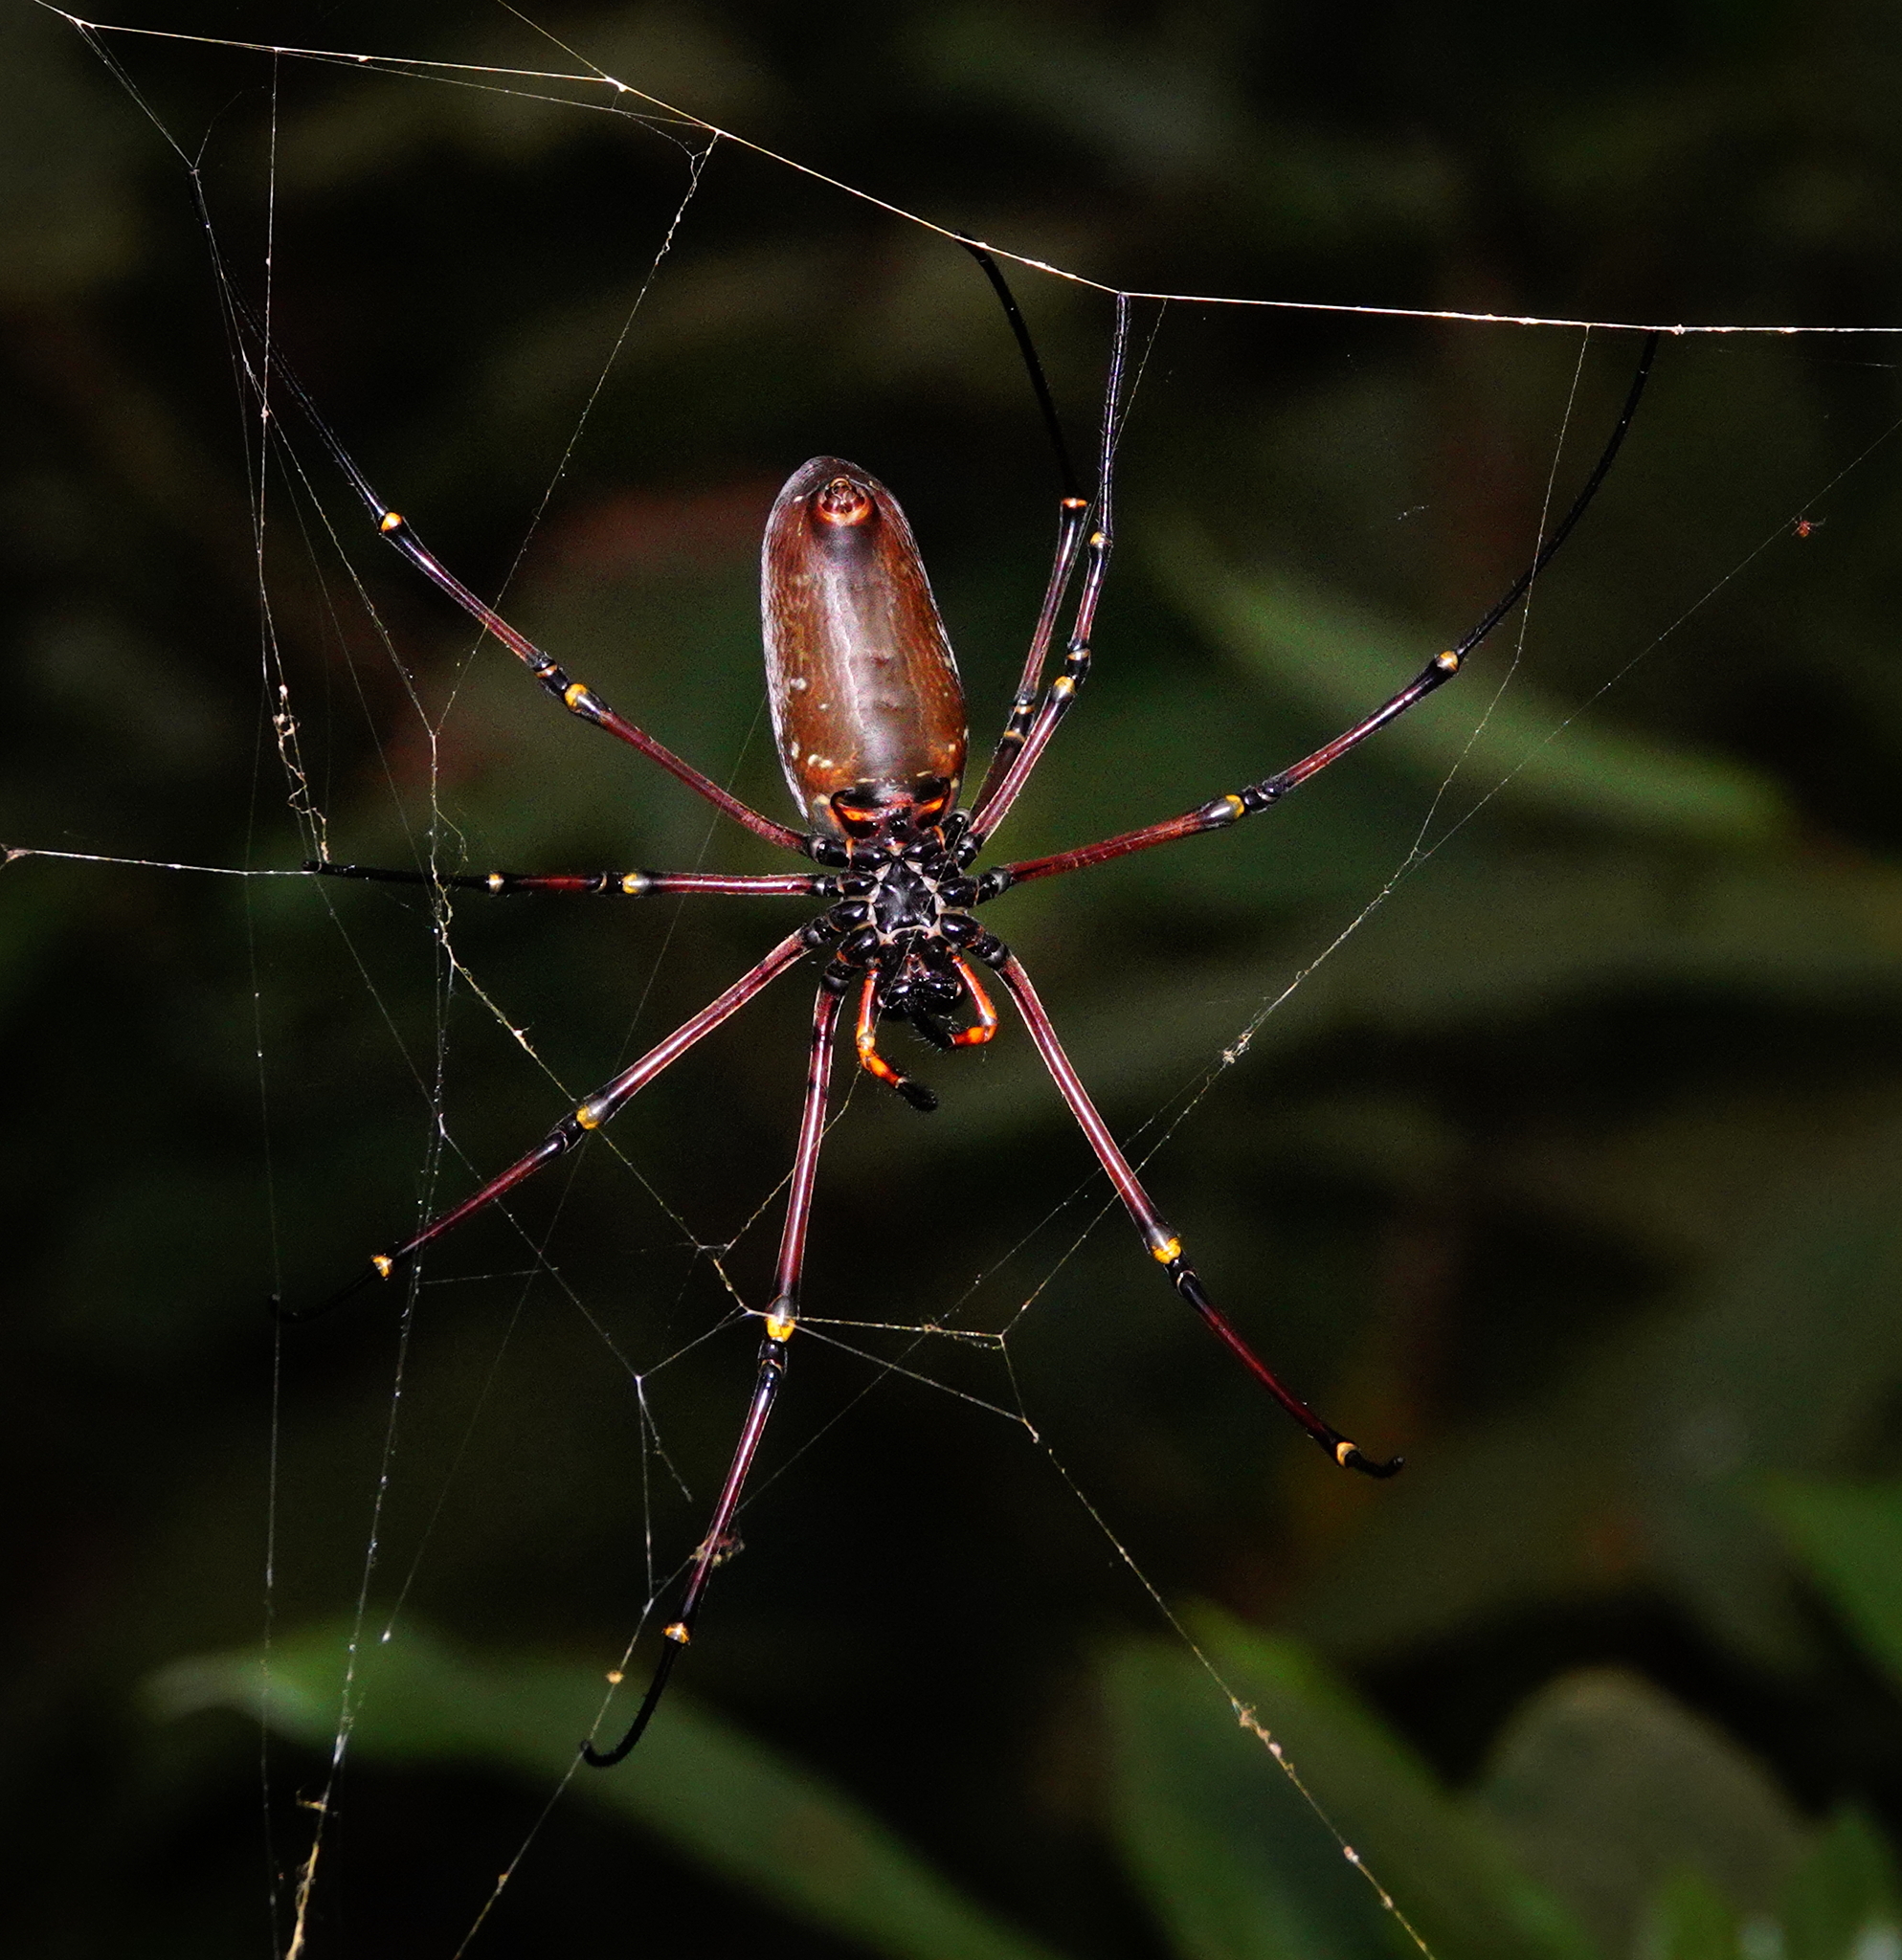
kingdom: Animalia
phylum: Arthropoda
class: Arachnida
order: Araneae
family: Araneidae
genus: Nephila
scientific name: Nephila kuhli
